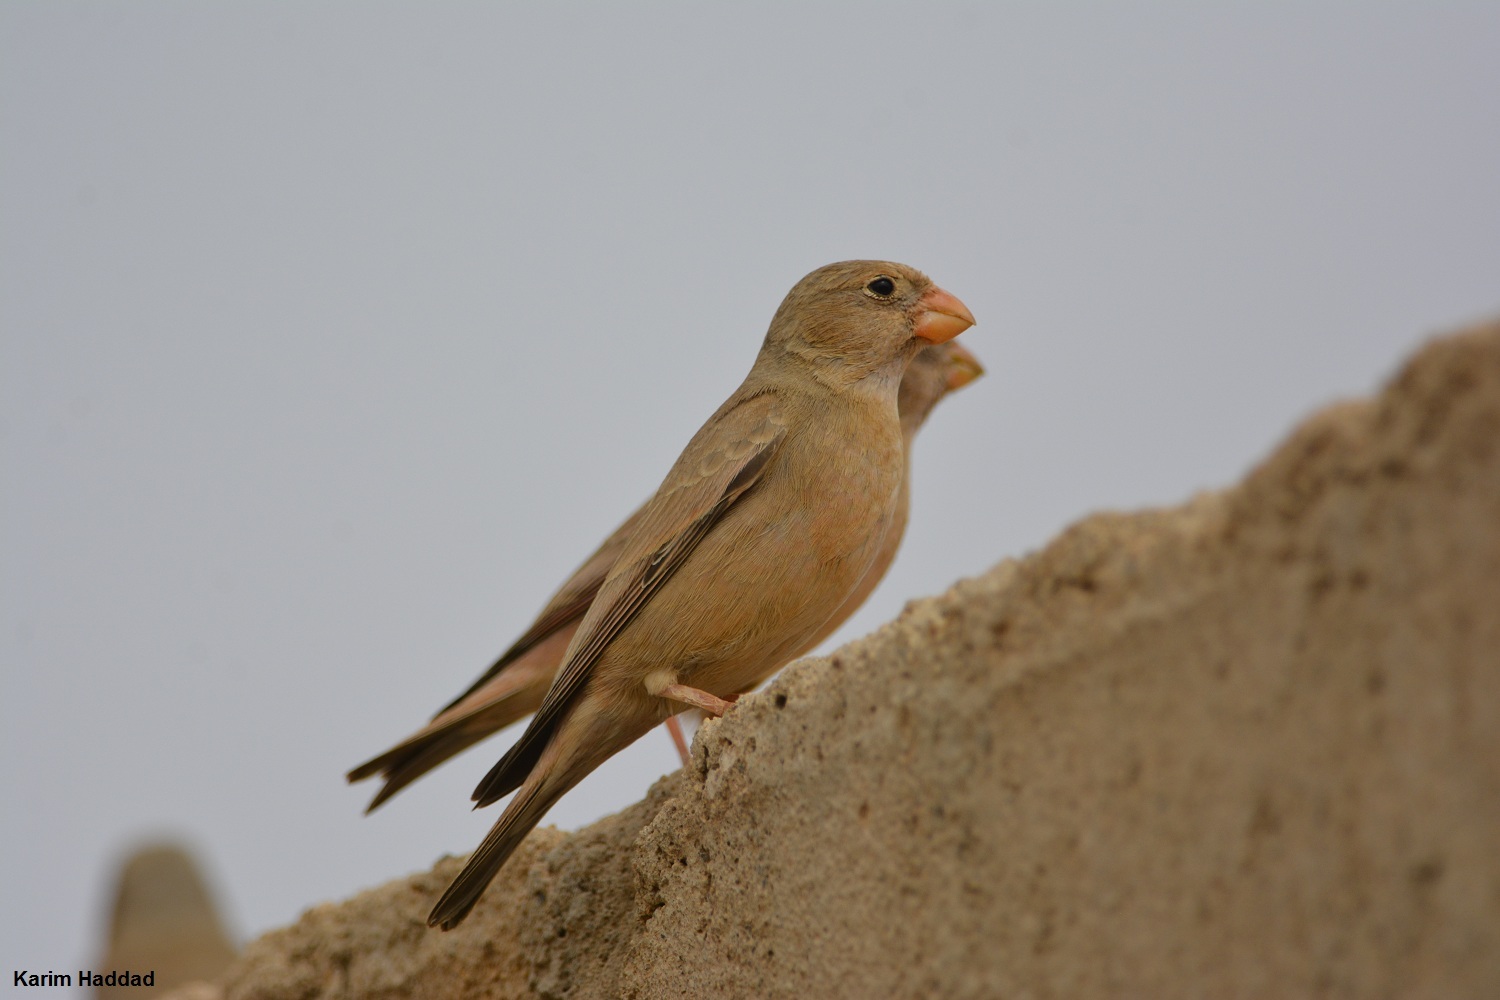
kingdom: Animalia
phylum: Chordata
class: Aves
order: Passeriformes
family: Fringillidae
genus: Bucanetes
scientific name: Bucanetes githagineus
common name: Trumpeter finch
